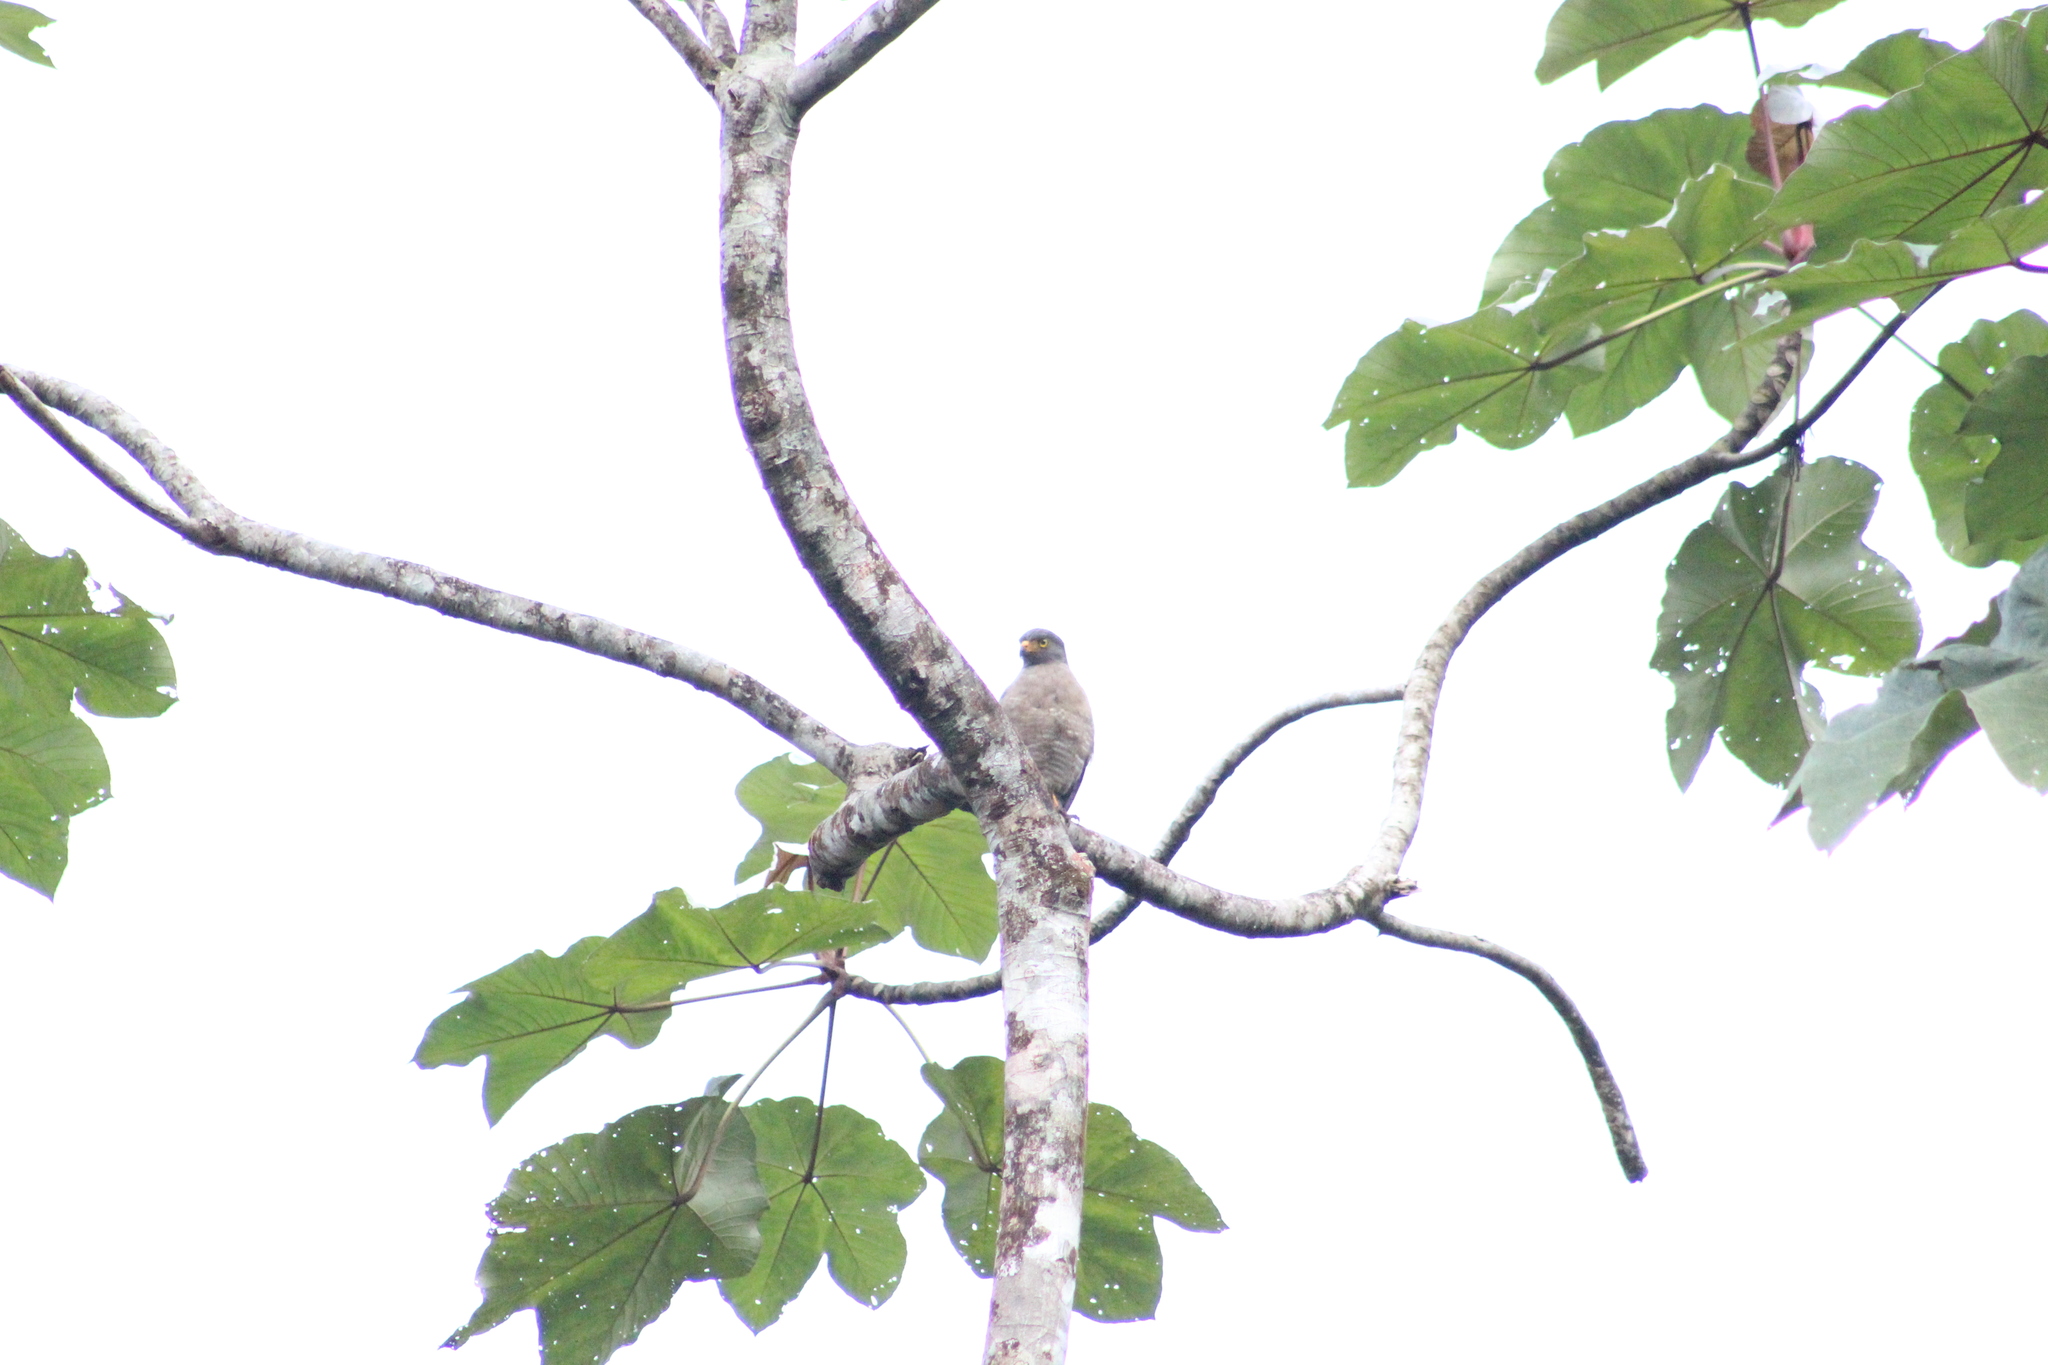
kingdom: Animalia
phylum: Chordata
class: Aves
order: Accipitriformes
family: Accipitridae
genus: Rupornis
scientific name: Rupornis magnirostris
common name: Roadside hawk
